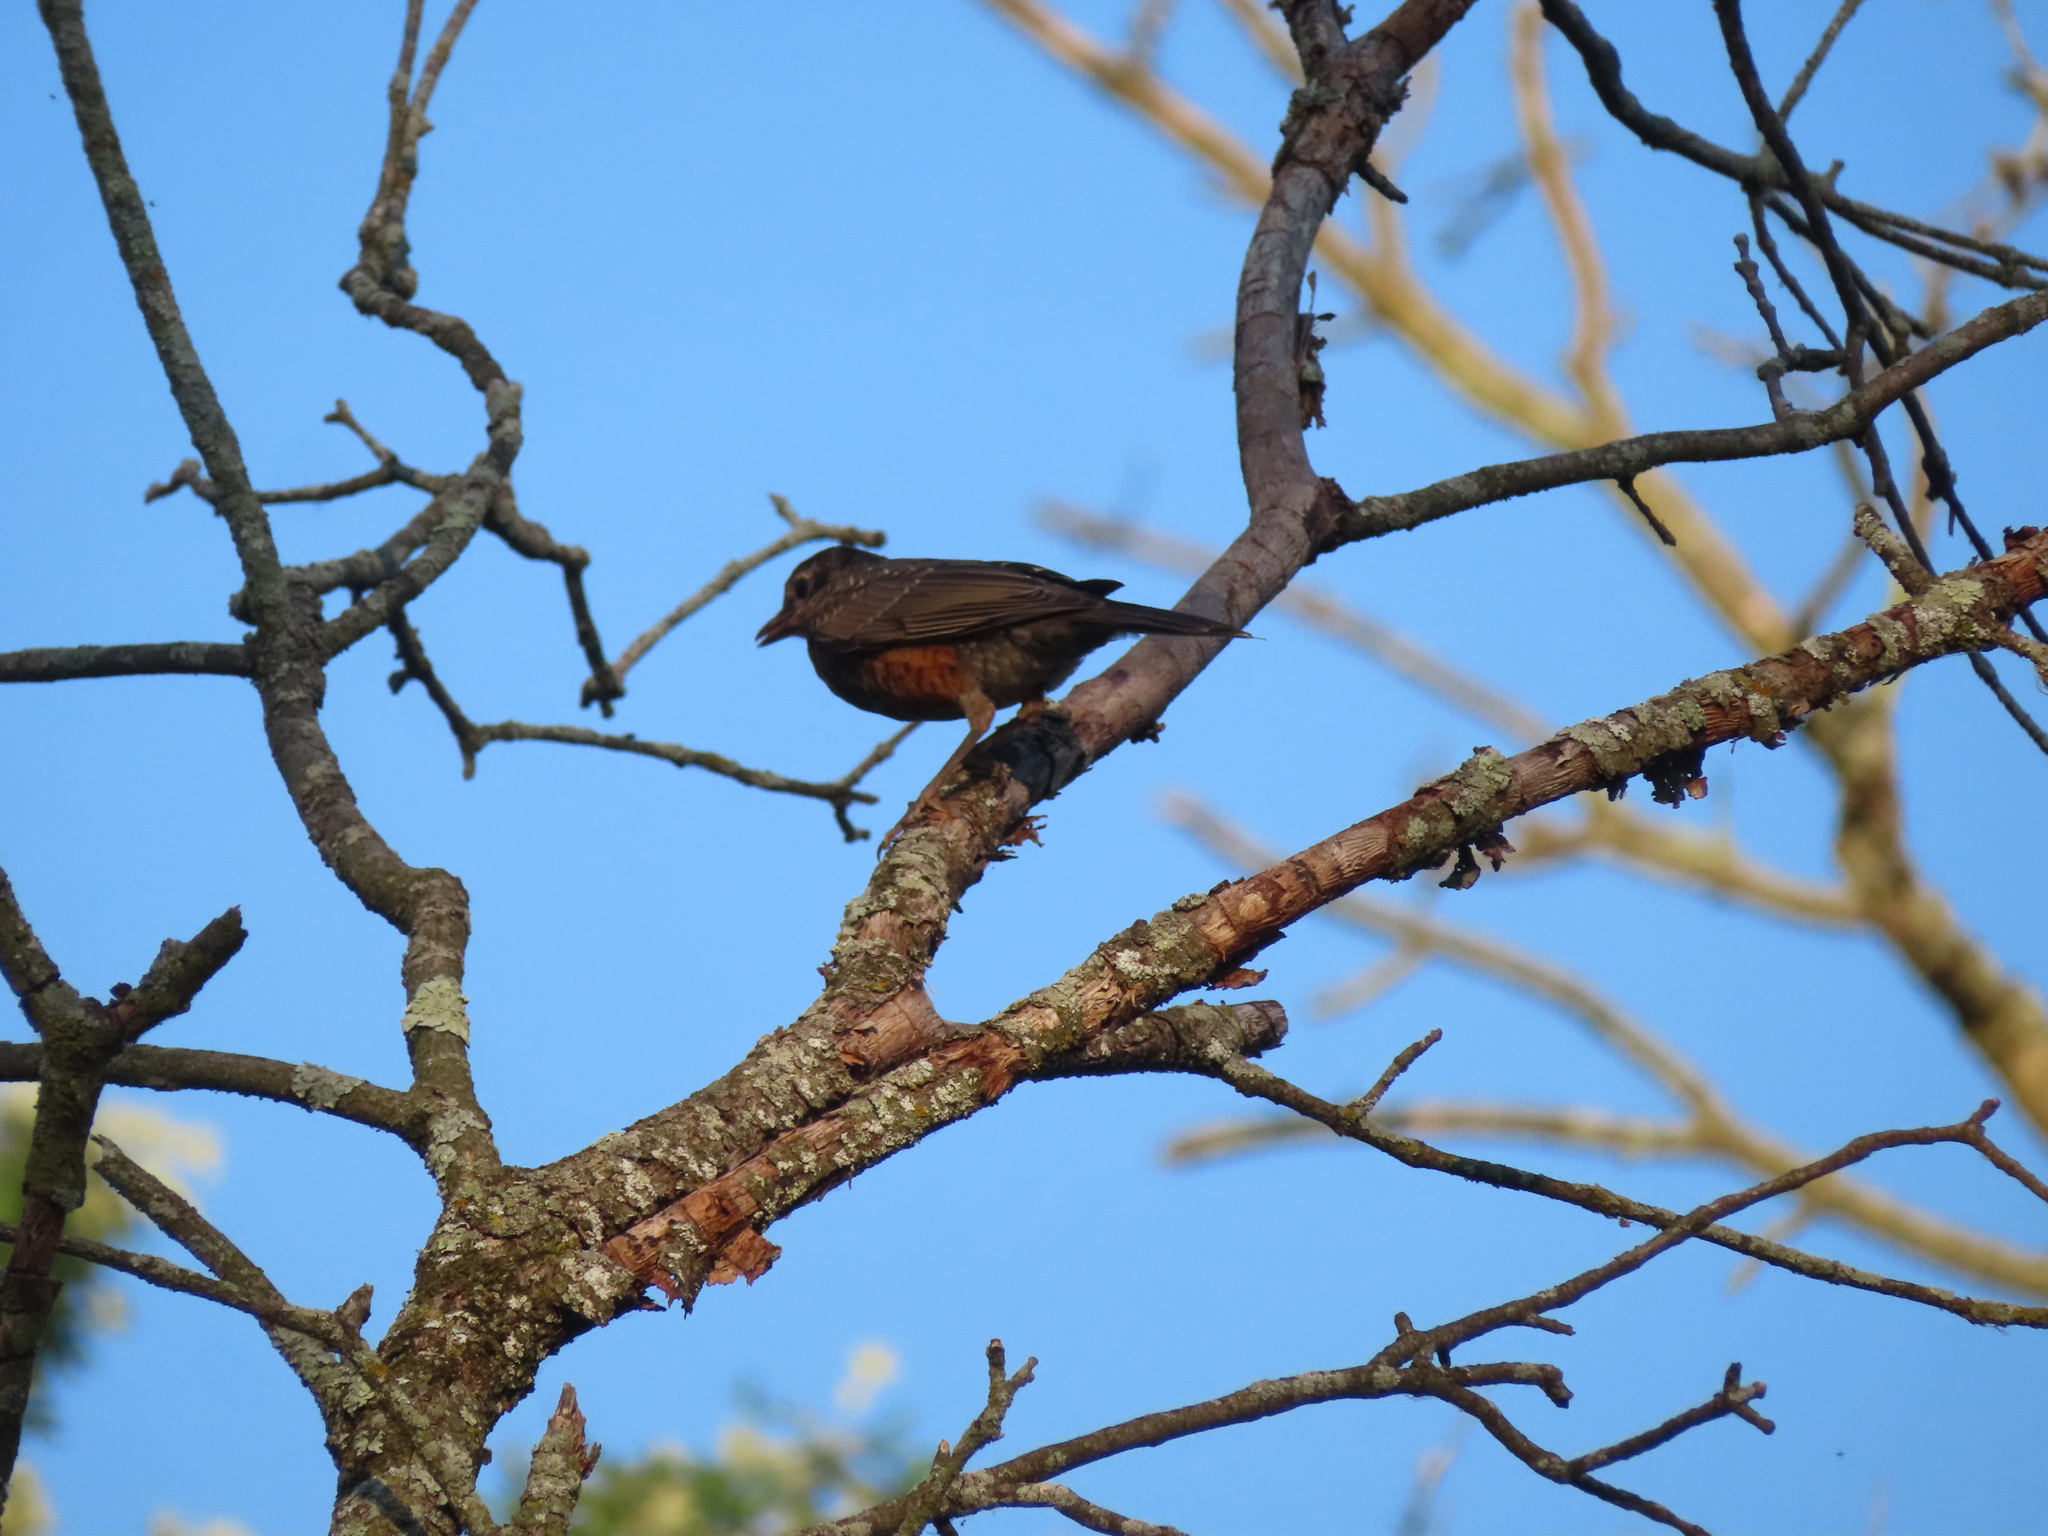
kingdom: Animalia
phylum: Chordata
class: Aves
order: Passeriformes
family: Turdidae
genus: Turdus
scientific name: Turdus migratorius
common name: American robin
